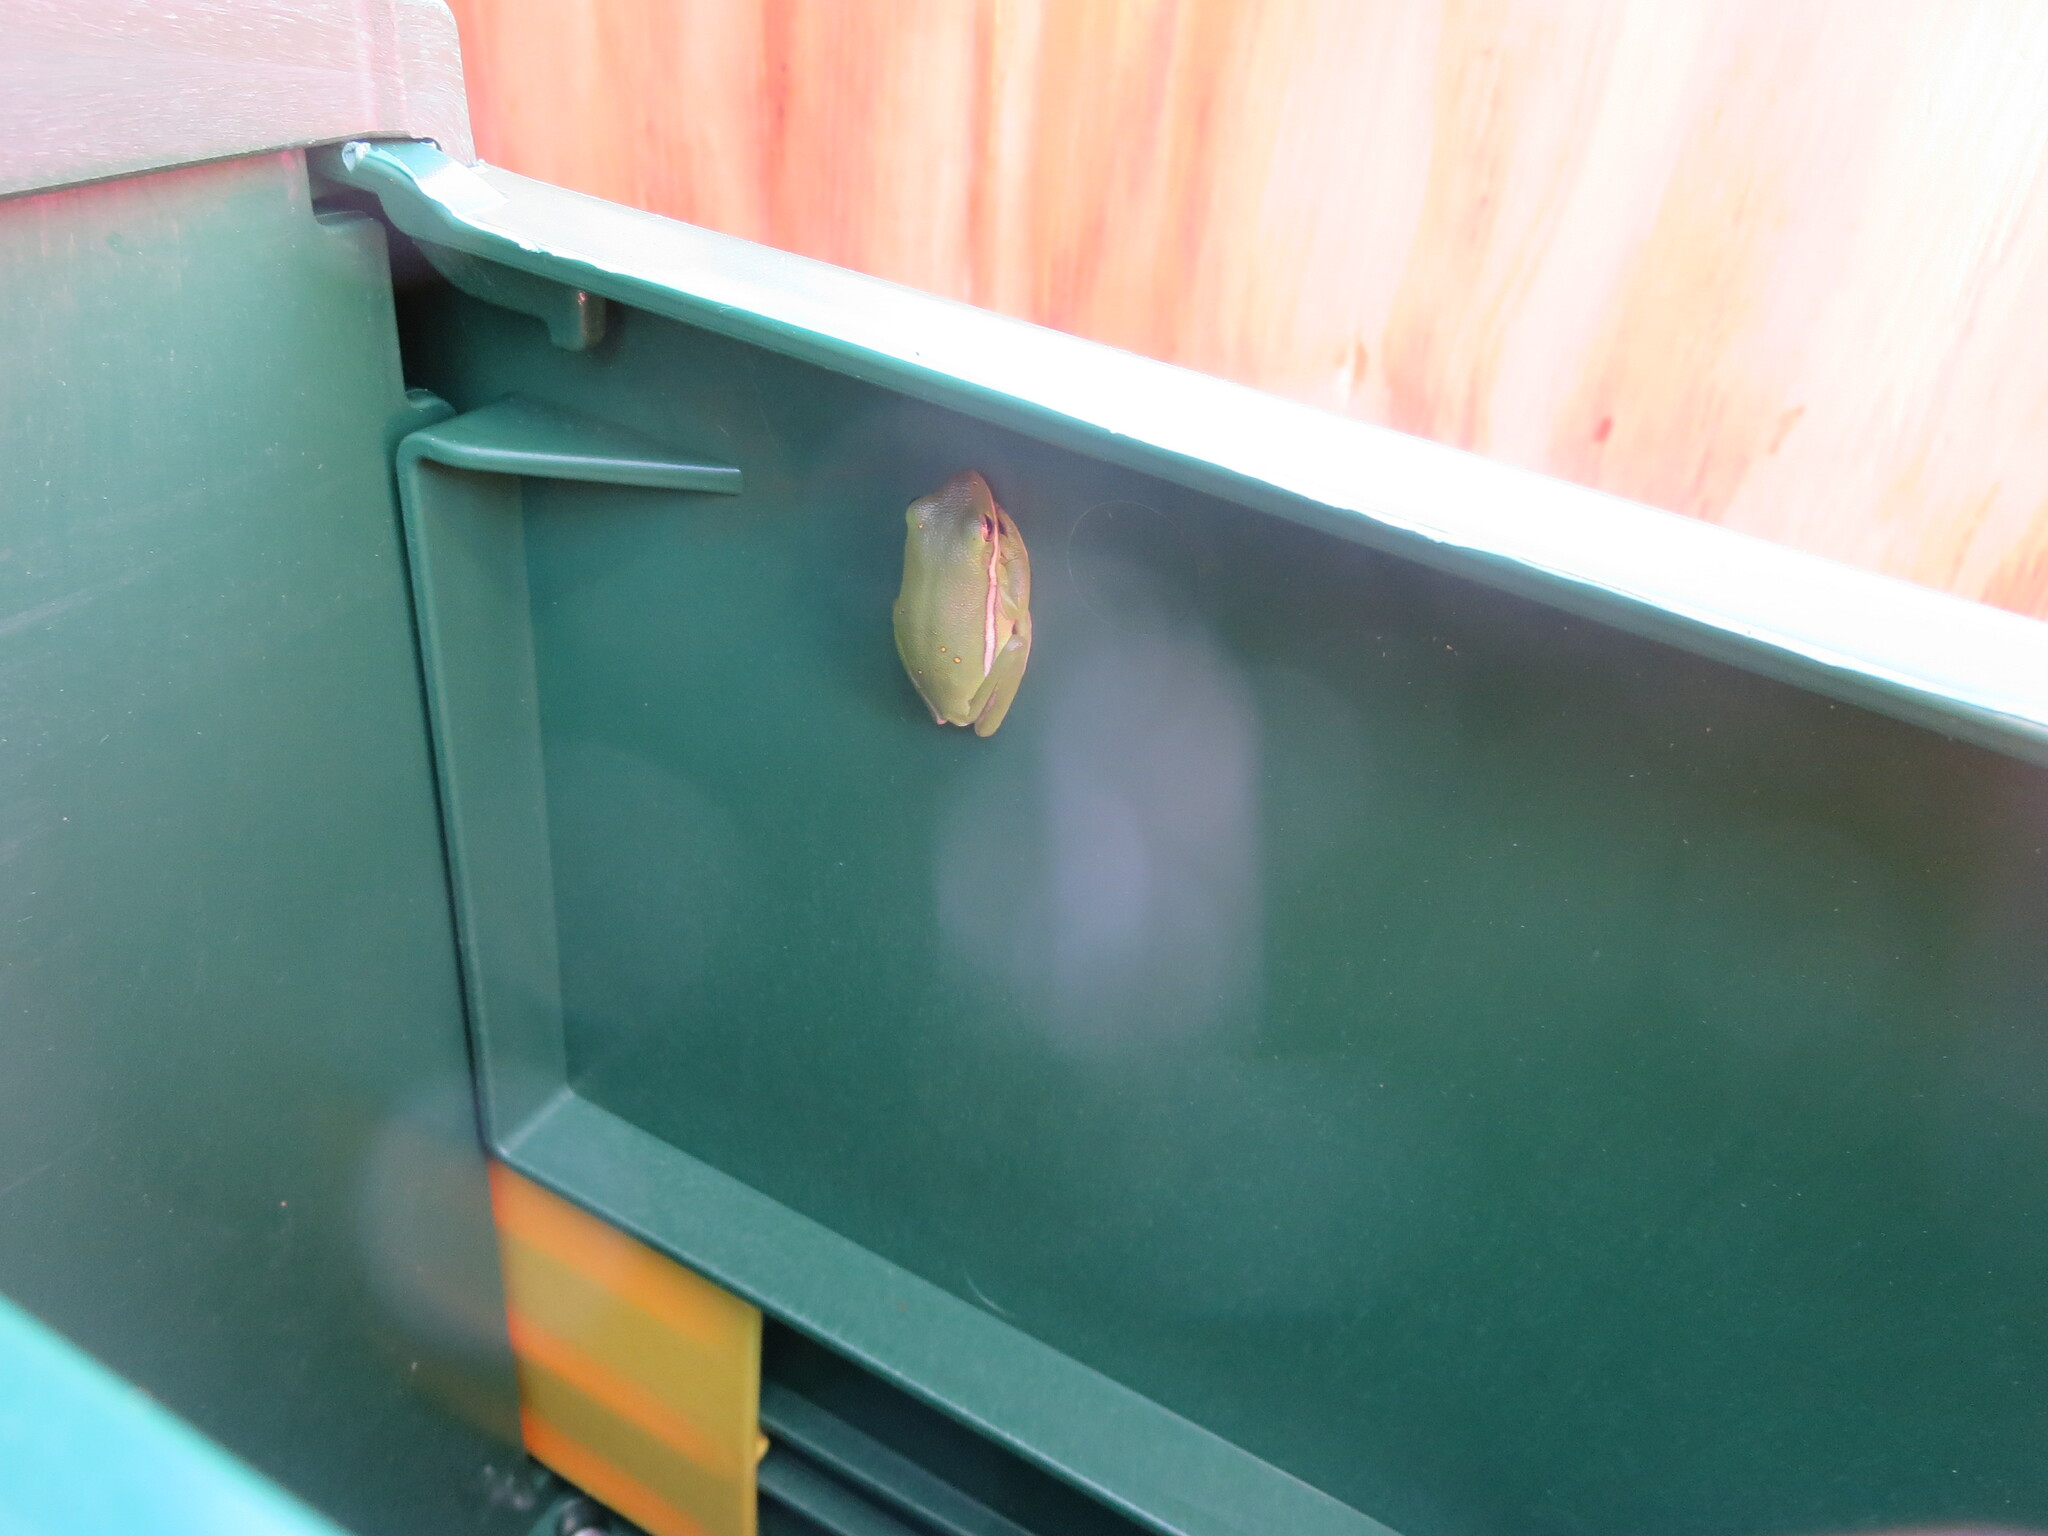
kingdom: Animalia
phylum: Chordata
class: Amphibia
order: Anura
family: Hylidae
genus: Dryophytes
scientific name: Dryophytes cinereus
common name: Green treefrog
